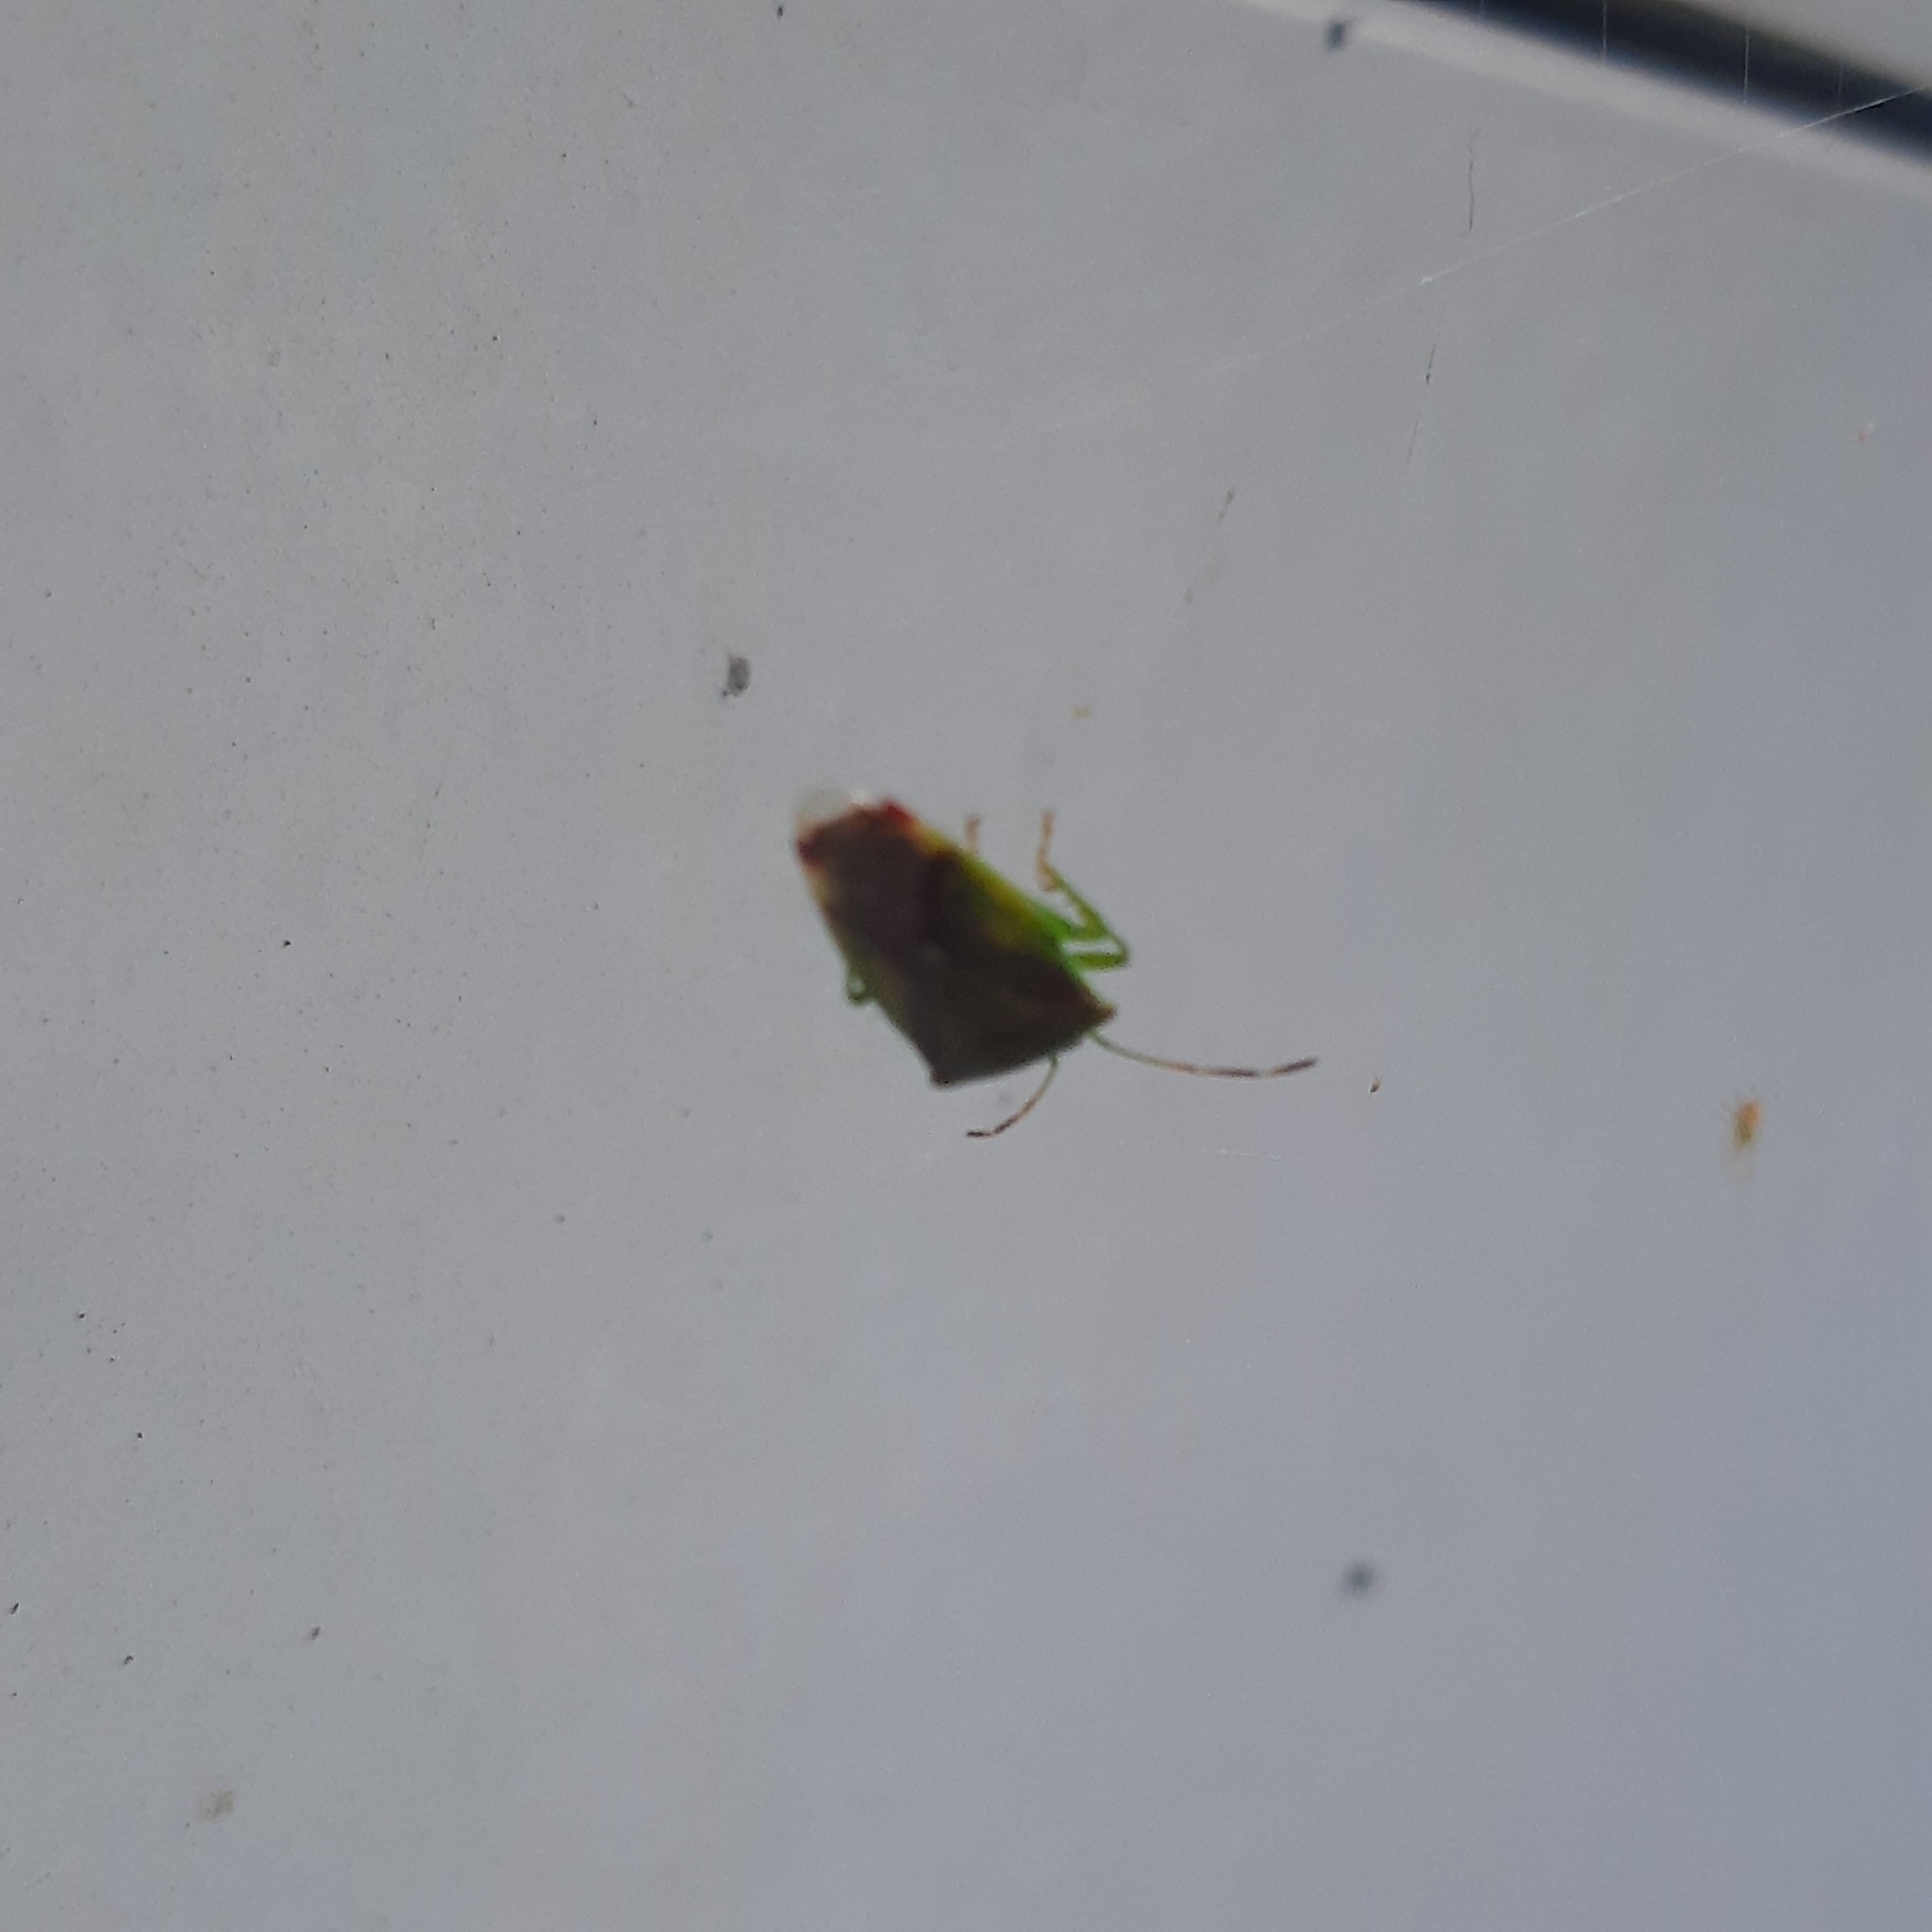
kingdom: Animalia
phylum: Arthropoda
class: Insecta
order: Hemiptera
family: Acanthosomatidae
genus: Acanthosoma
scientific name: Acanthosoma haemorrhoidale
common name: Hawthorn shieldbug
